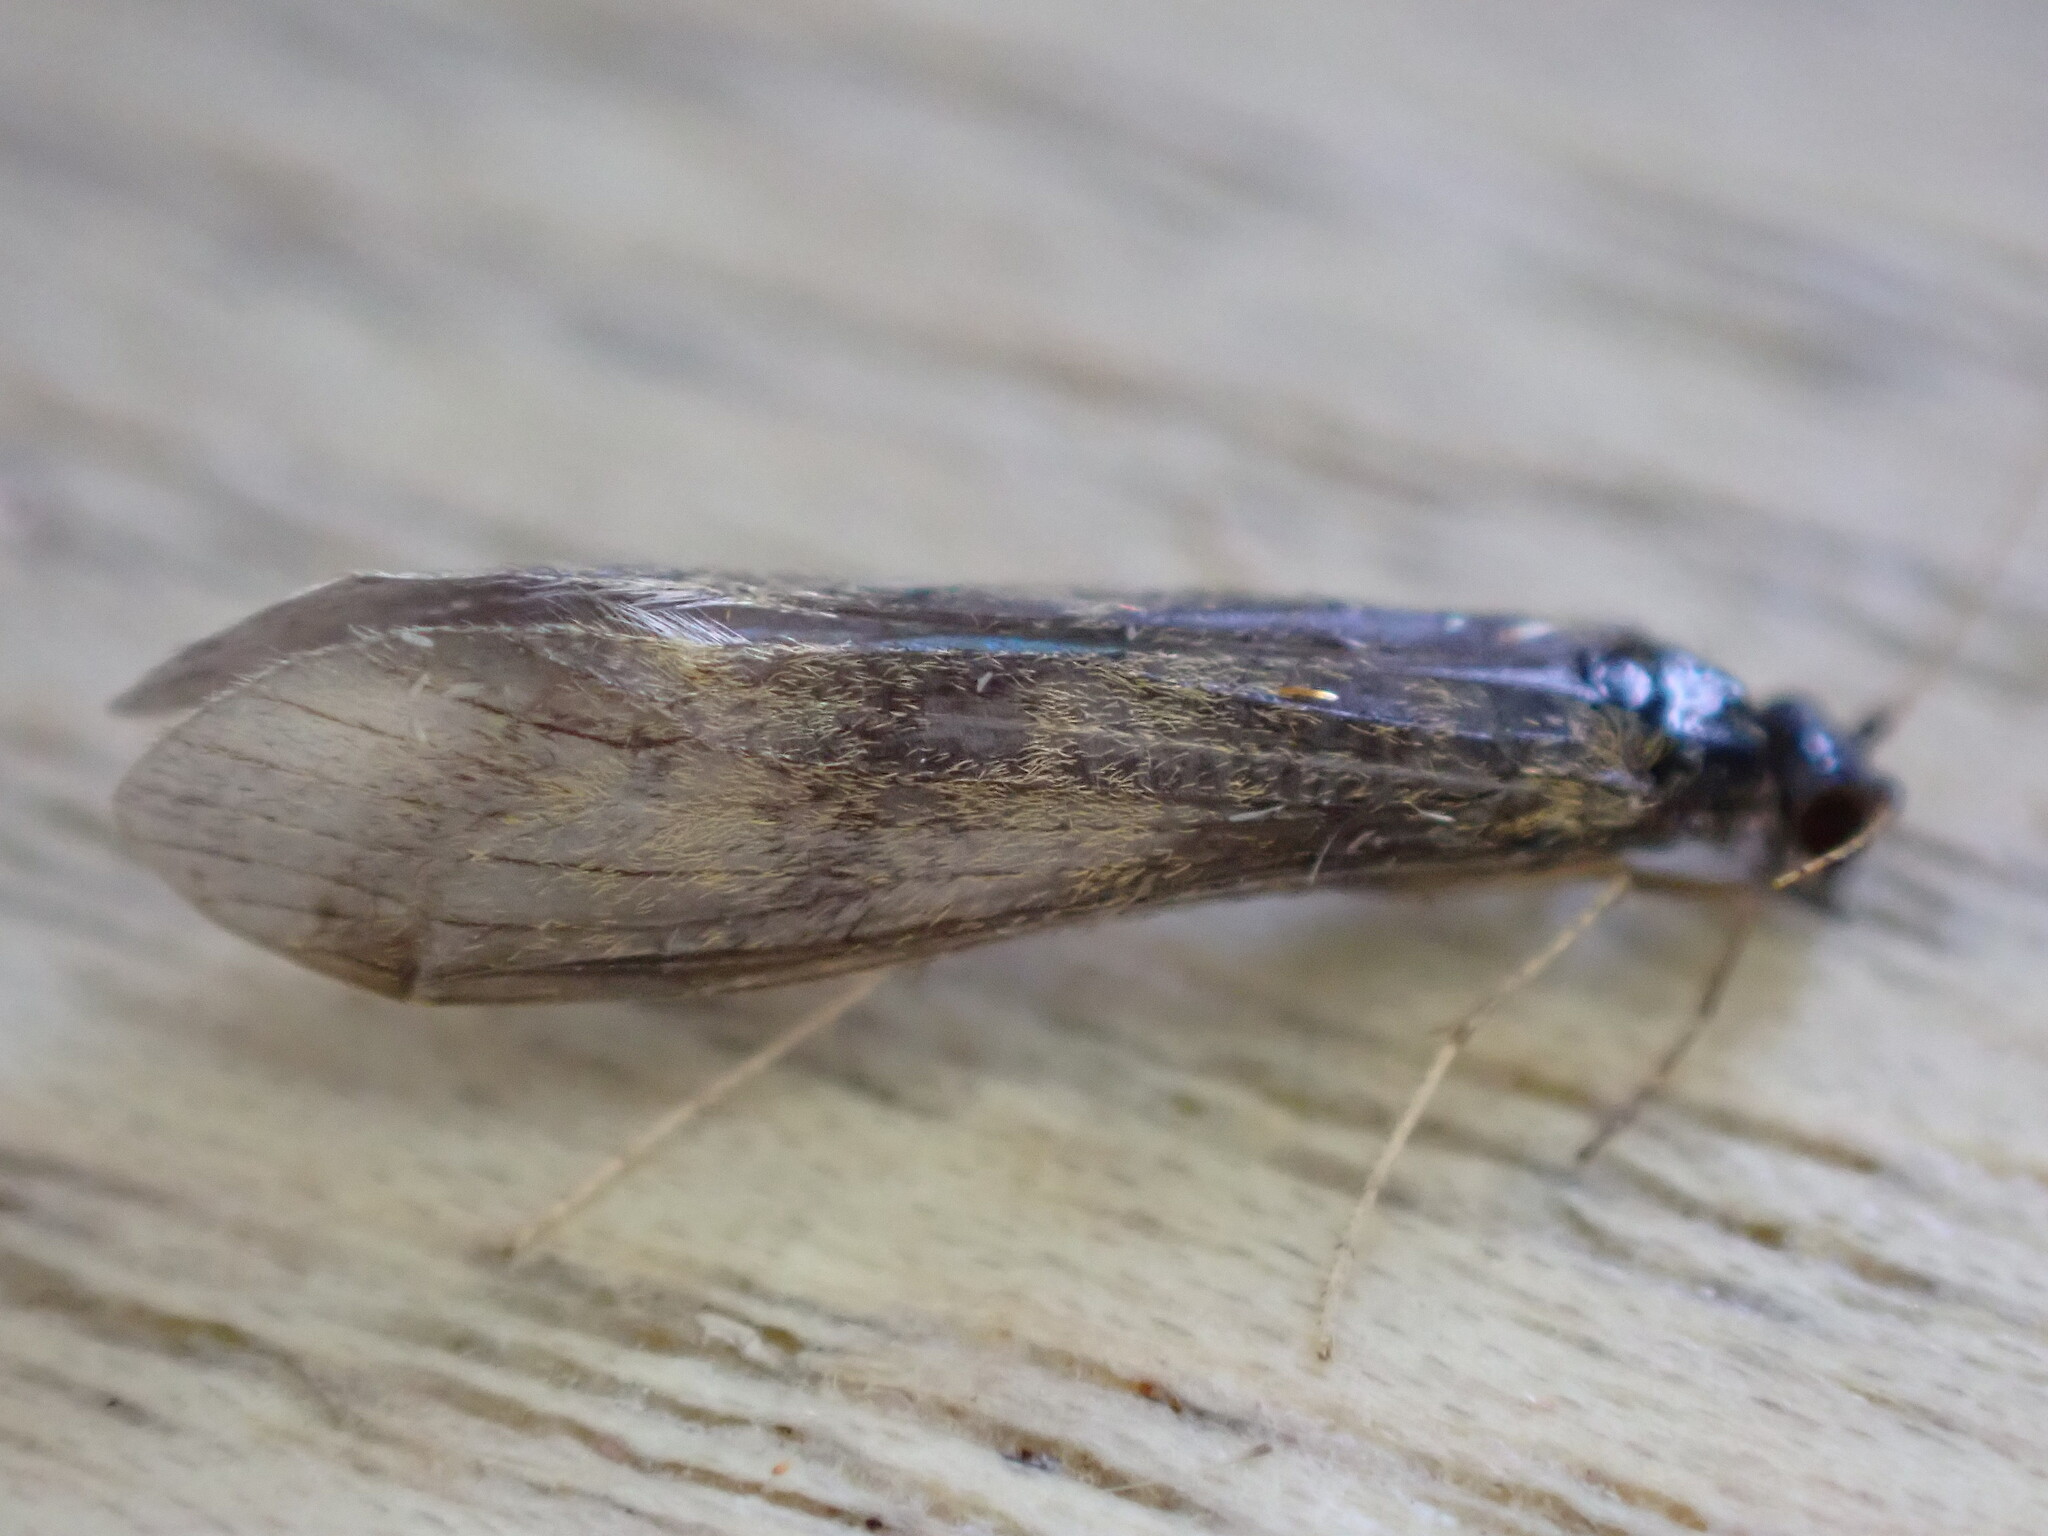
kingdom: Animalia
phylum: Arthropoda
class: Insecta
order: Trichoptera
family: Leptoceridae
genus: Mystacides
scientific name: Mystacides longicornis
